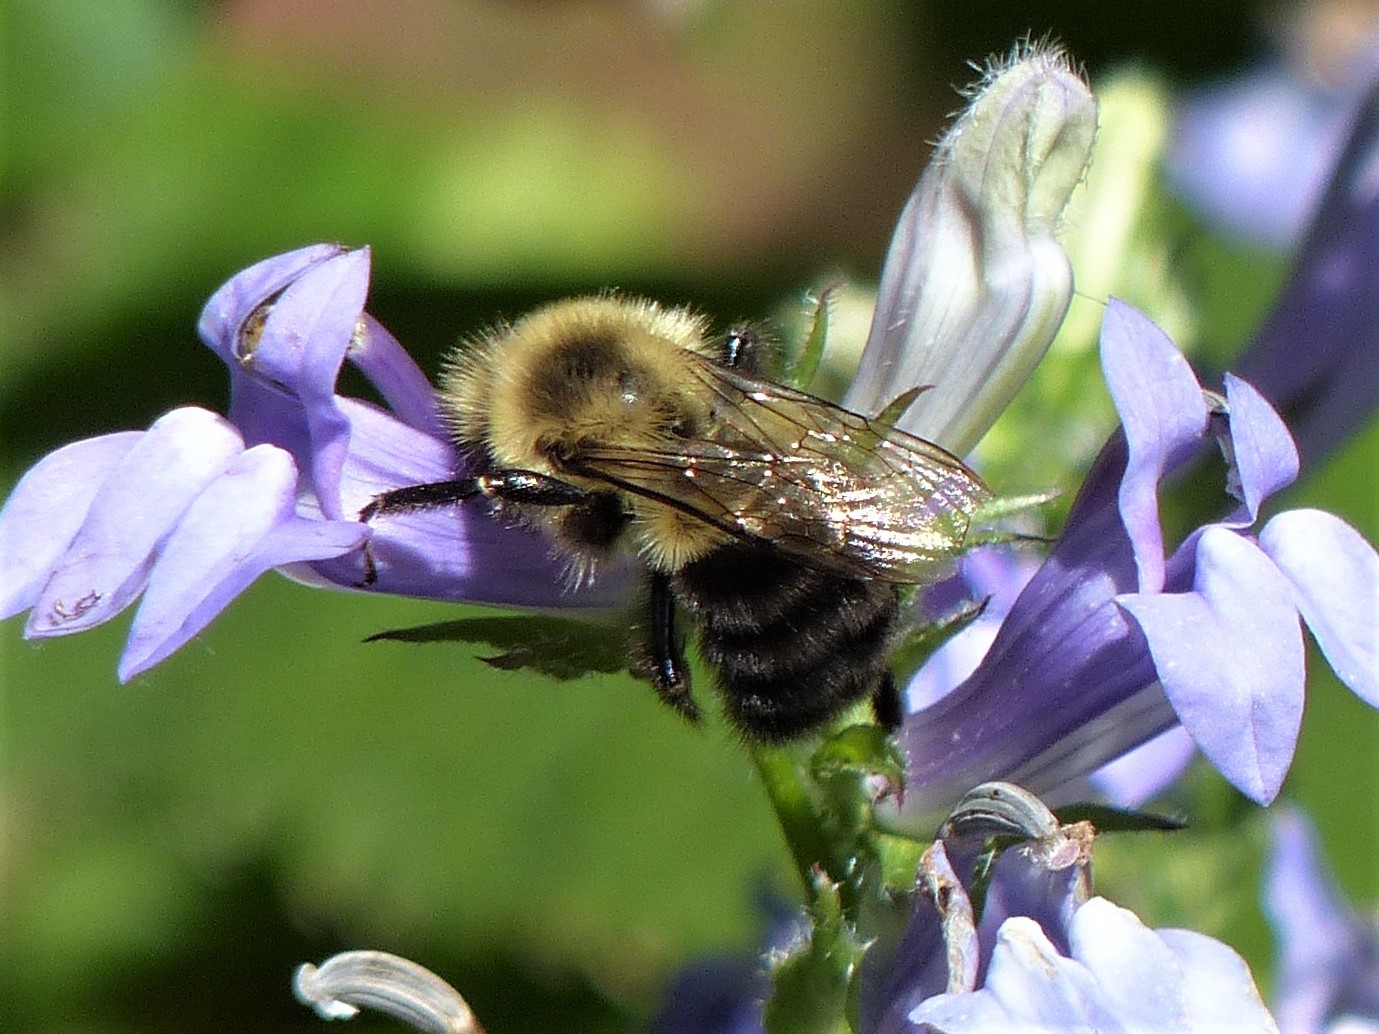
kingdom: Animalia
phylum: Arthropoda
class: Insecta
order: Hymenoptera
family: Apidae
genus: Bombus
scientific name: Bombus impatiens
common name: Common eastern bumble bee
